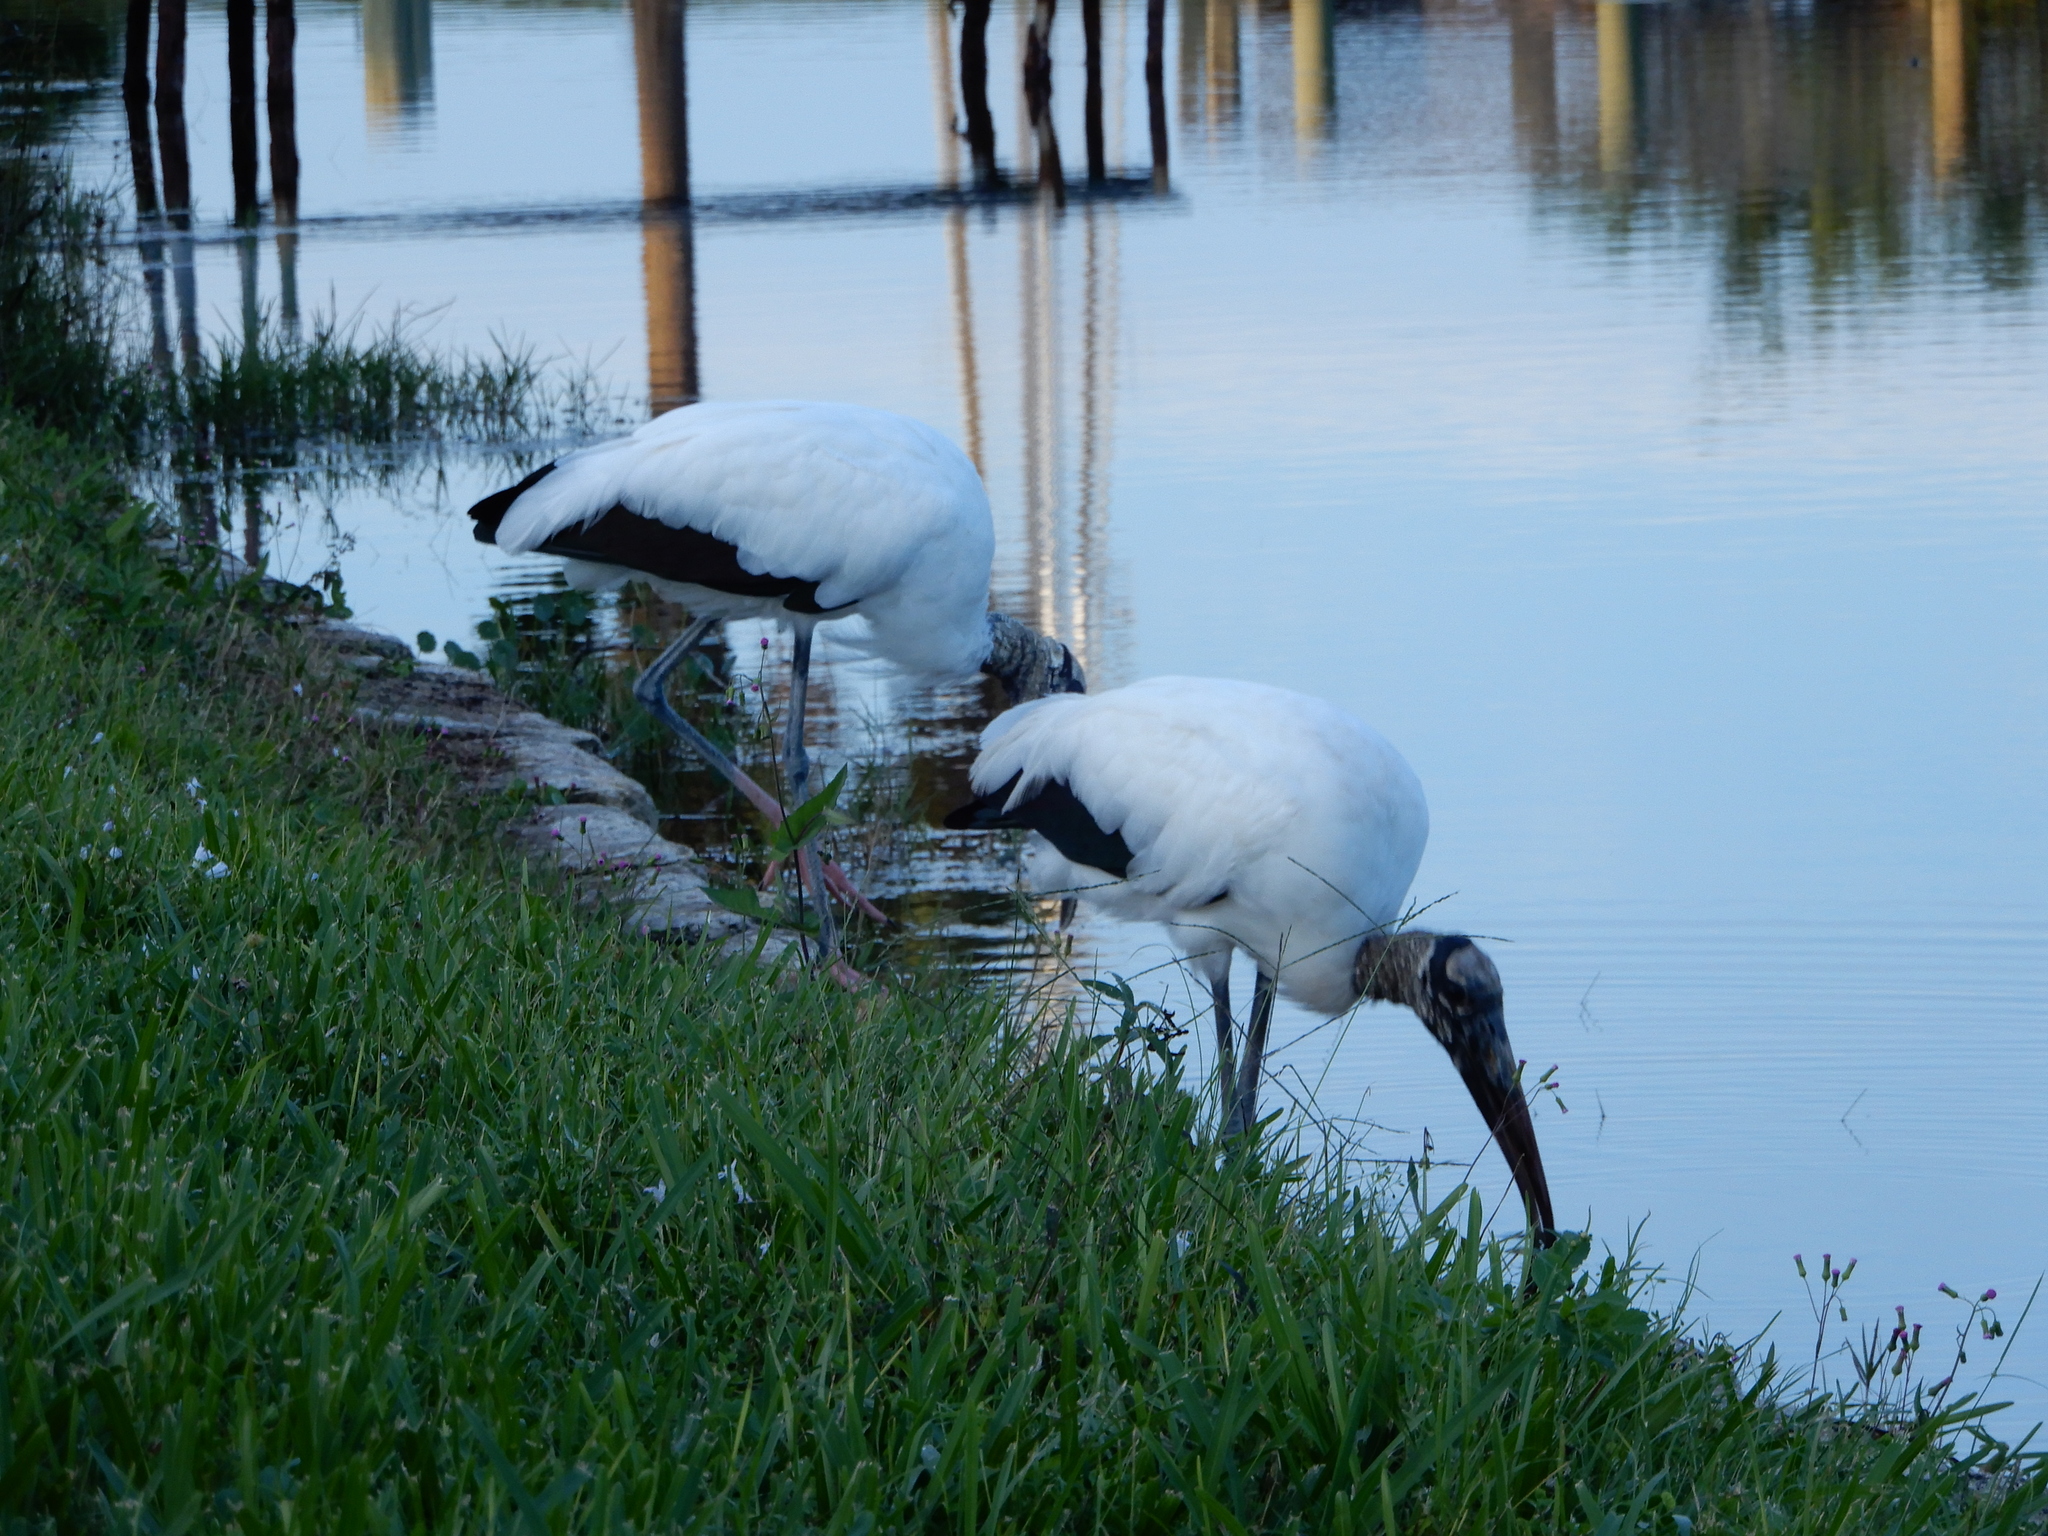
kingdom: Animalia
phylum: Chordata
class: Aves
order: Ciconiiformes
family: Ciconiidae
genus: Mycteria
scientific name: Mycteria americana
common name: Wood stork
